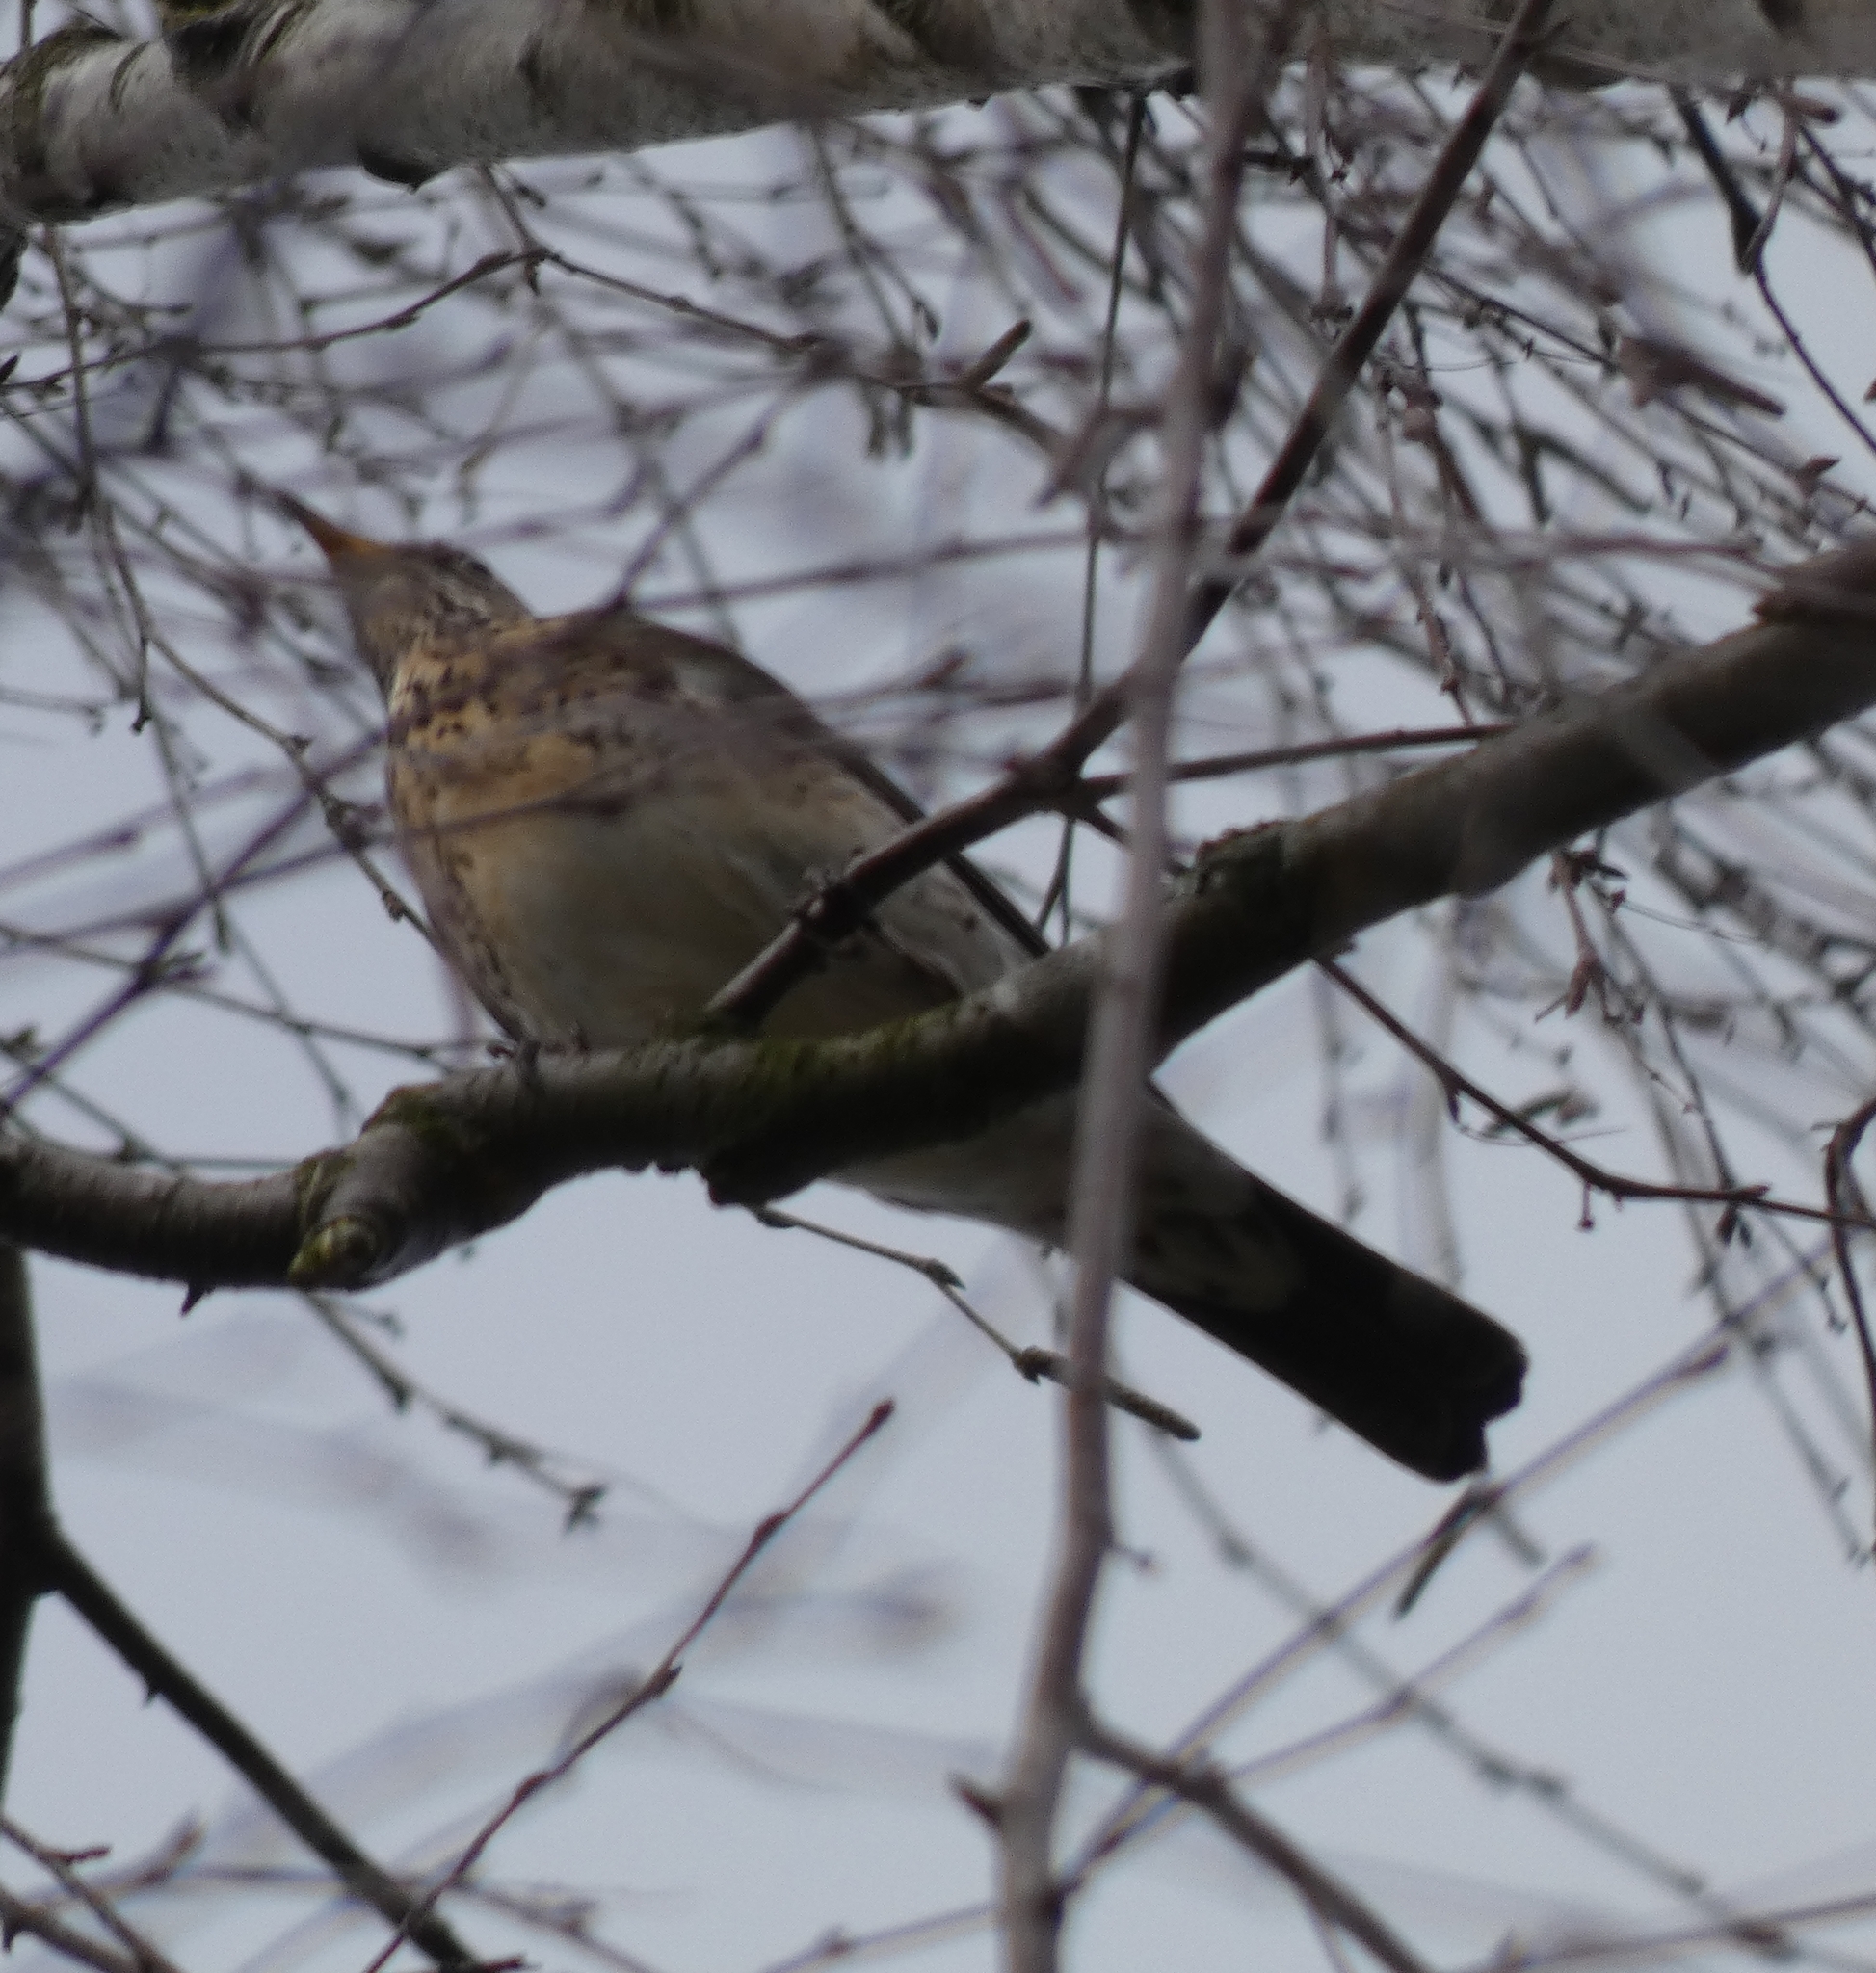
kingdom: Animalia
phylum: Chordata
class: Aves
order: Passeriformes
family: Turdidae
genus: Turdus
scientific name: Turdus pilaris
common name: Fieldfare
